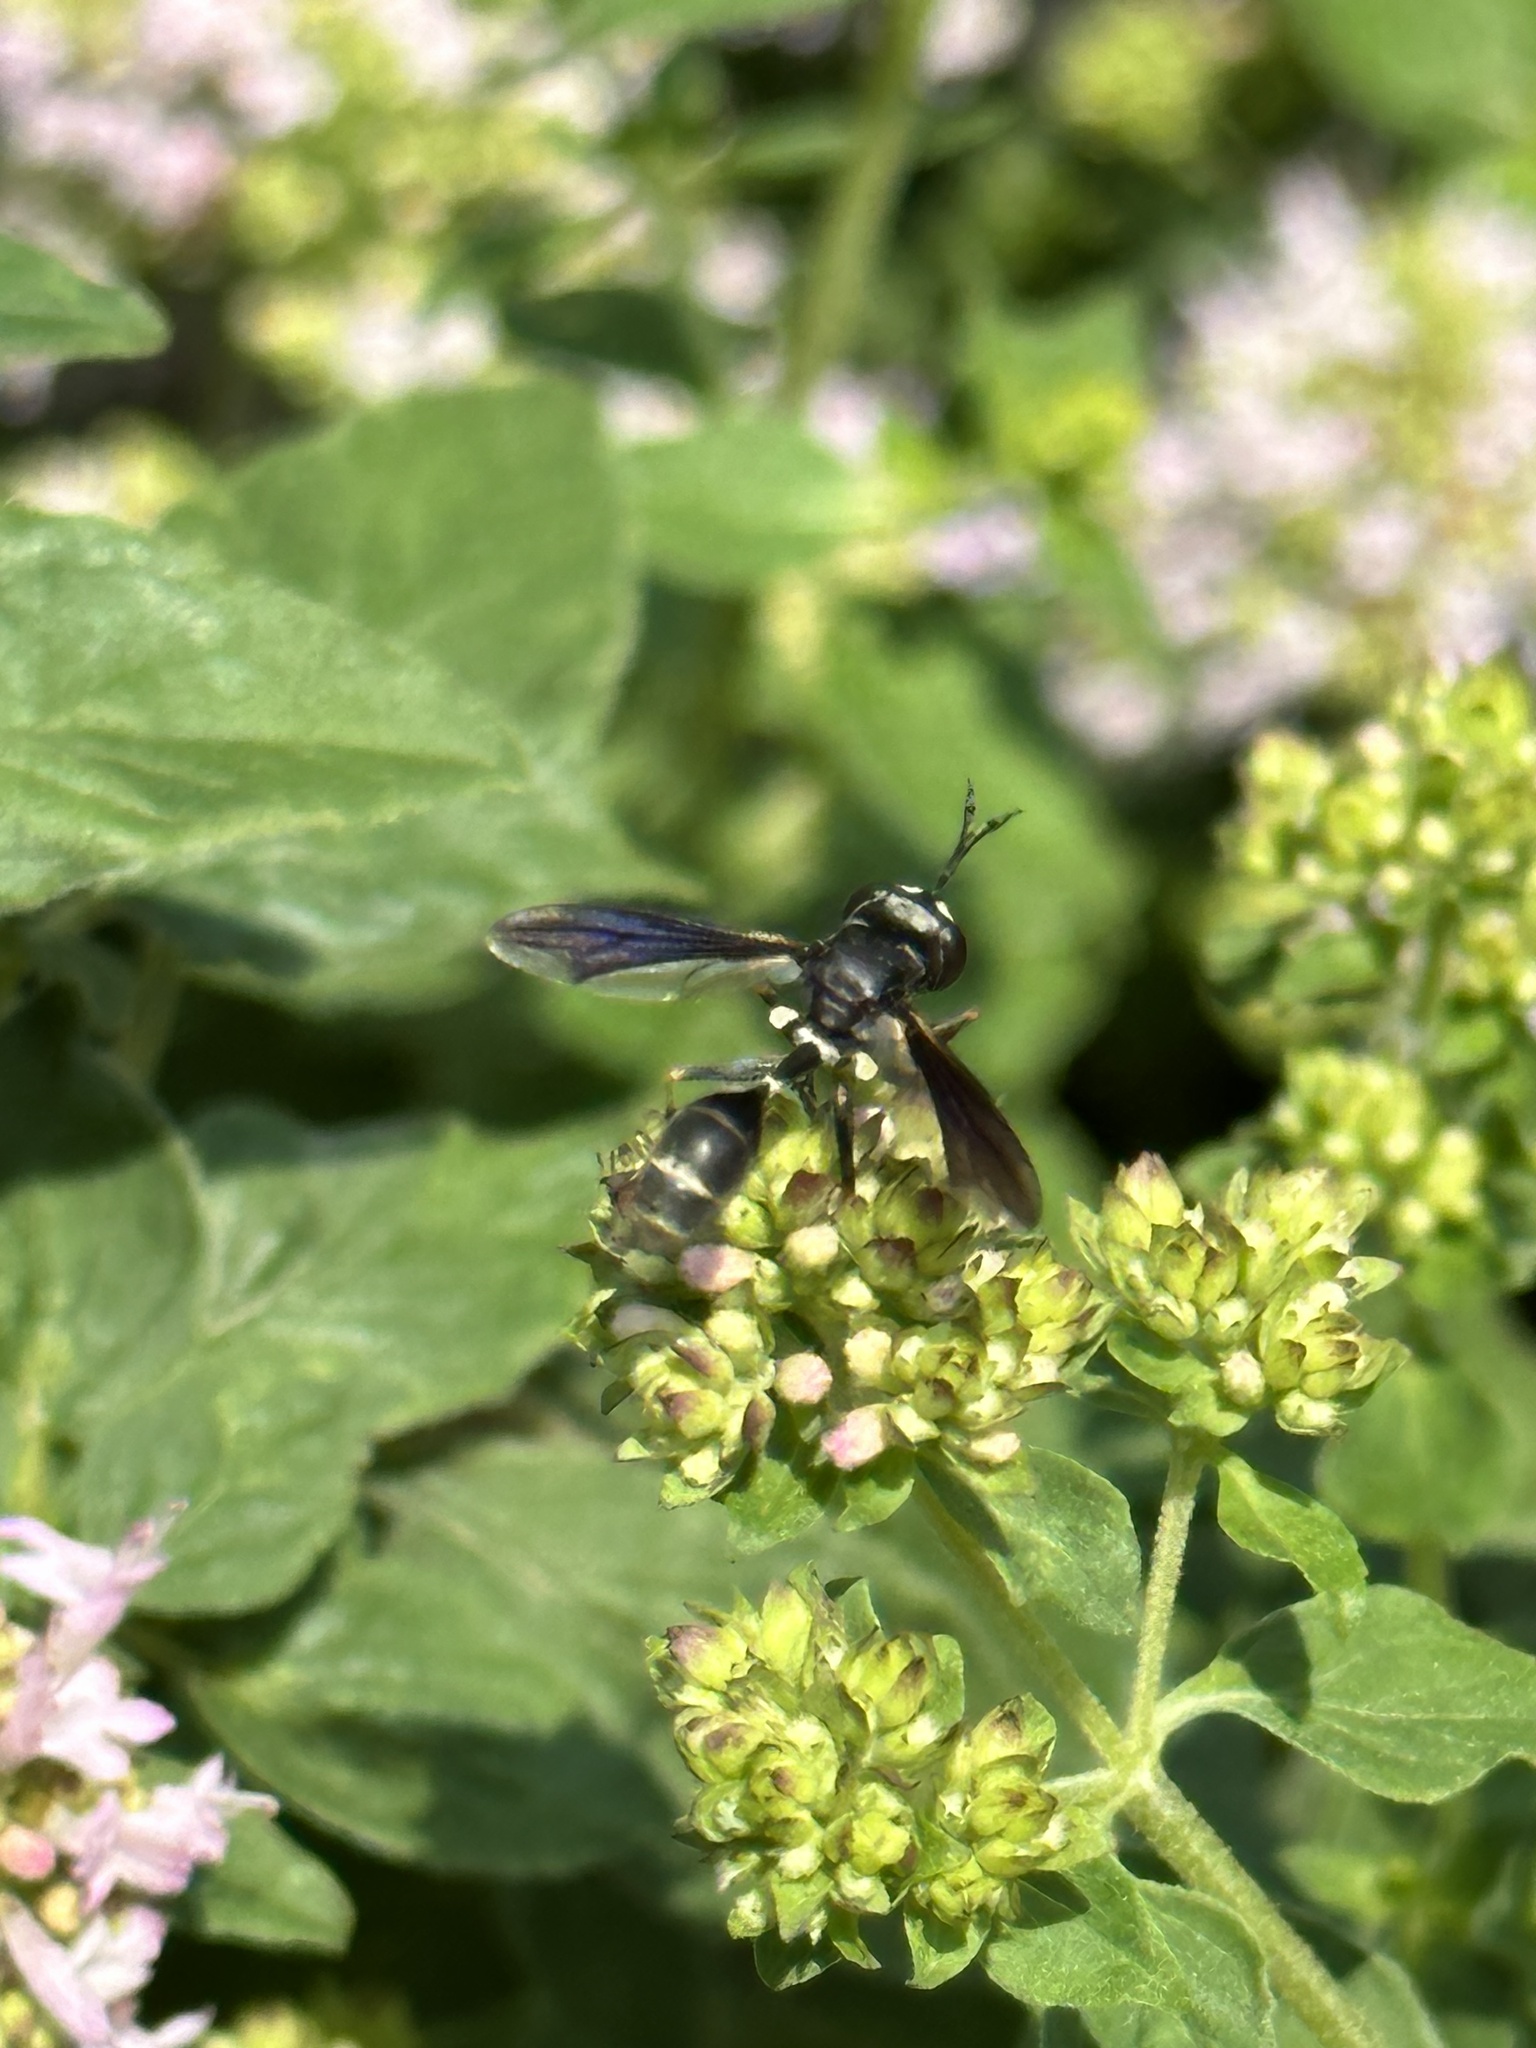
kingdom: Animalia
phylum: Arthropoda
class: Insecta
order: Diptera
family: Conopidae
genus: Physocephala
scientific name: Physocephala tibialis
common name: Common eastern physocephala
